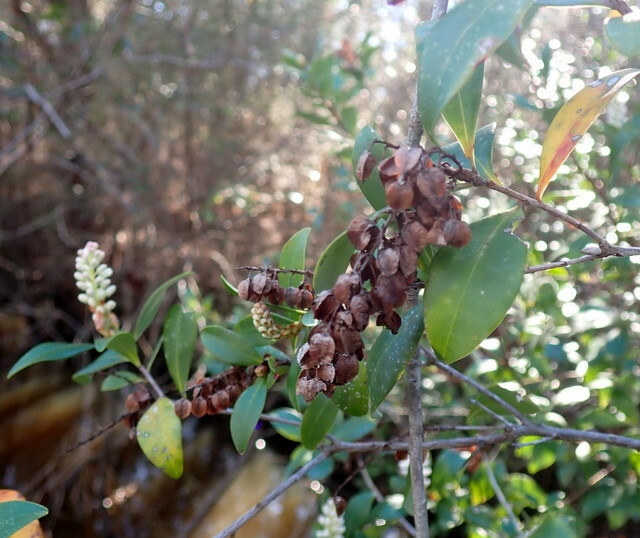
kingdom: Plantae
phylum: Tracheophyta
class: Magnoliopsida
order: Ericales
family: Cyrillaceae
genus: Cliftonia
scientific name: Cliftonia monophylla
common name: Titi
